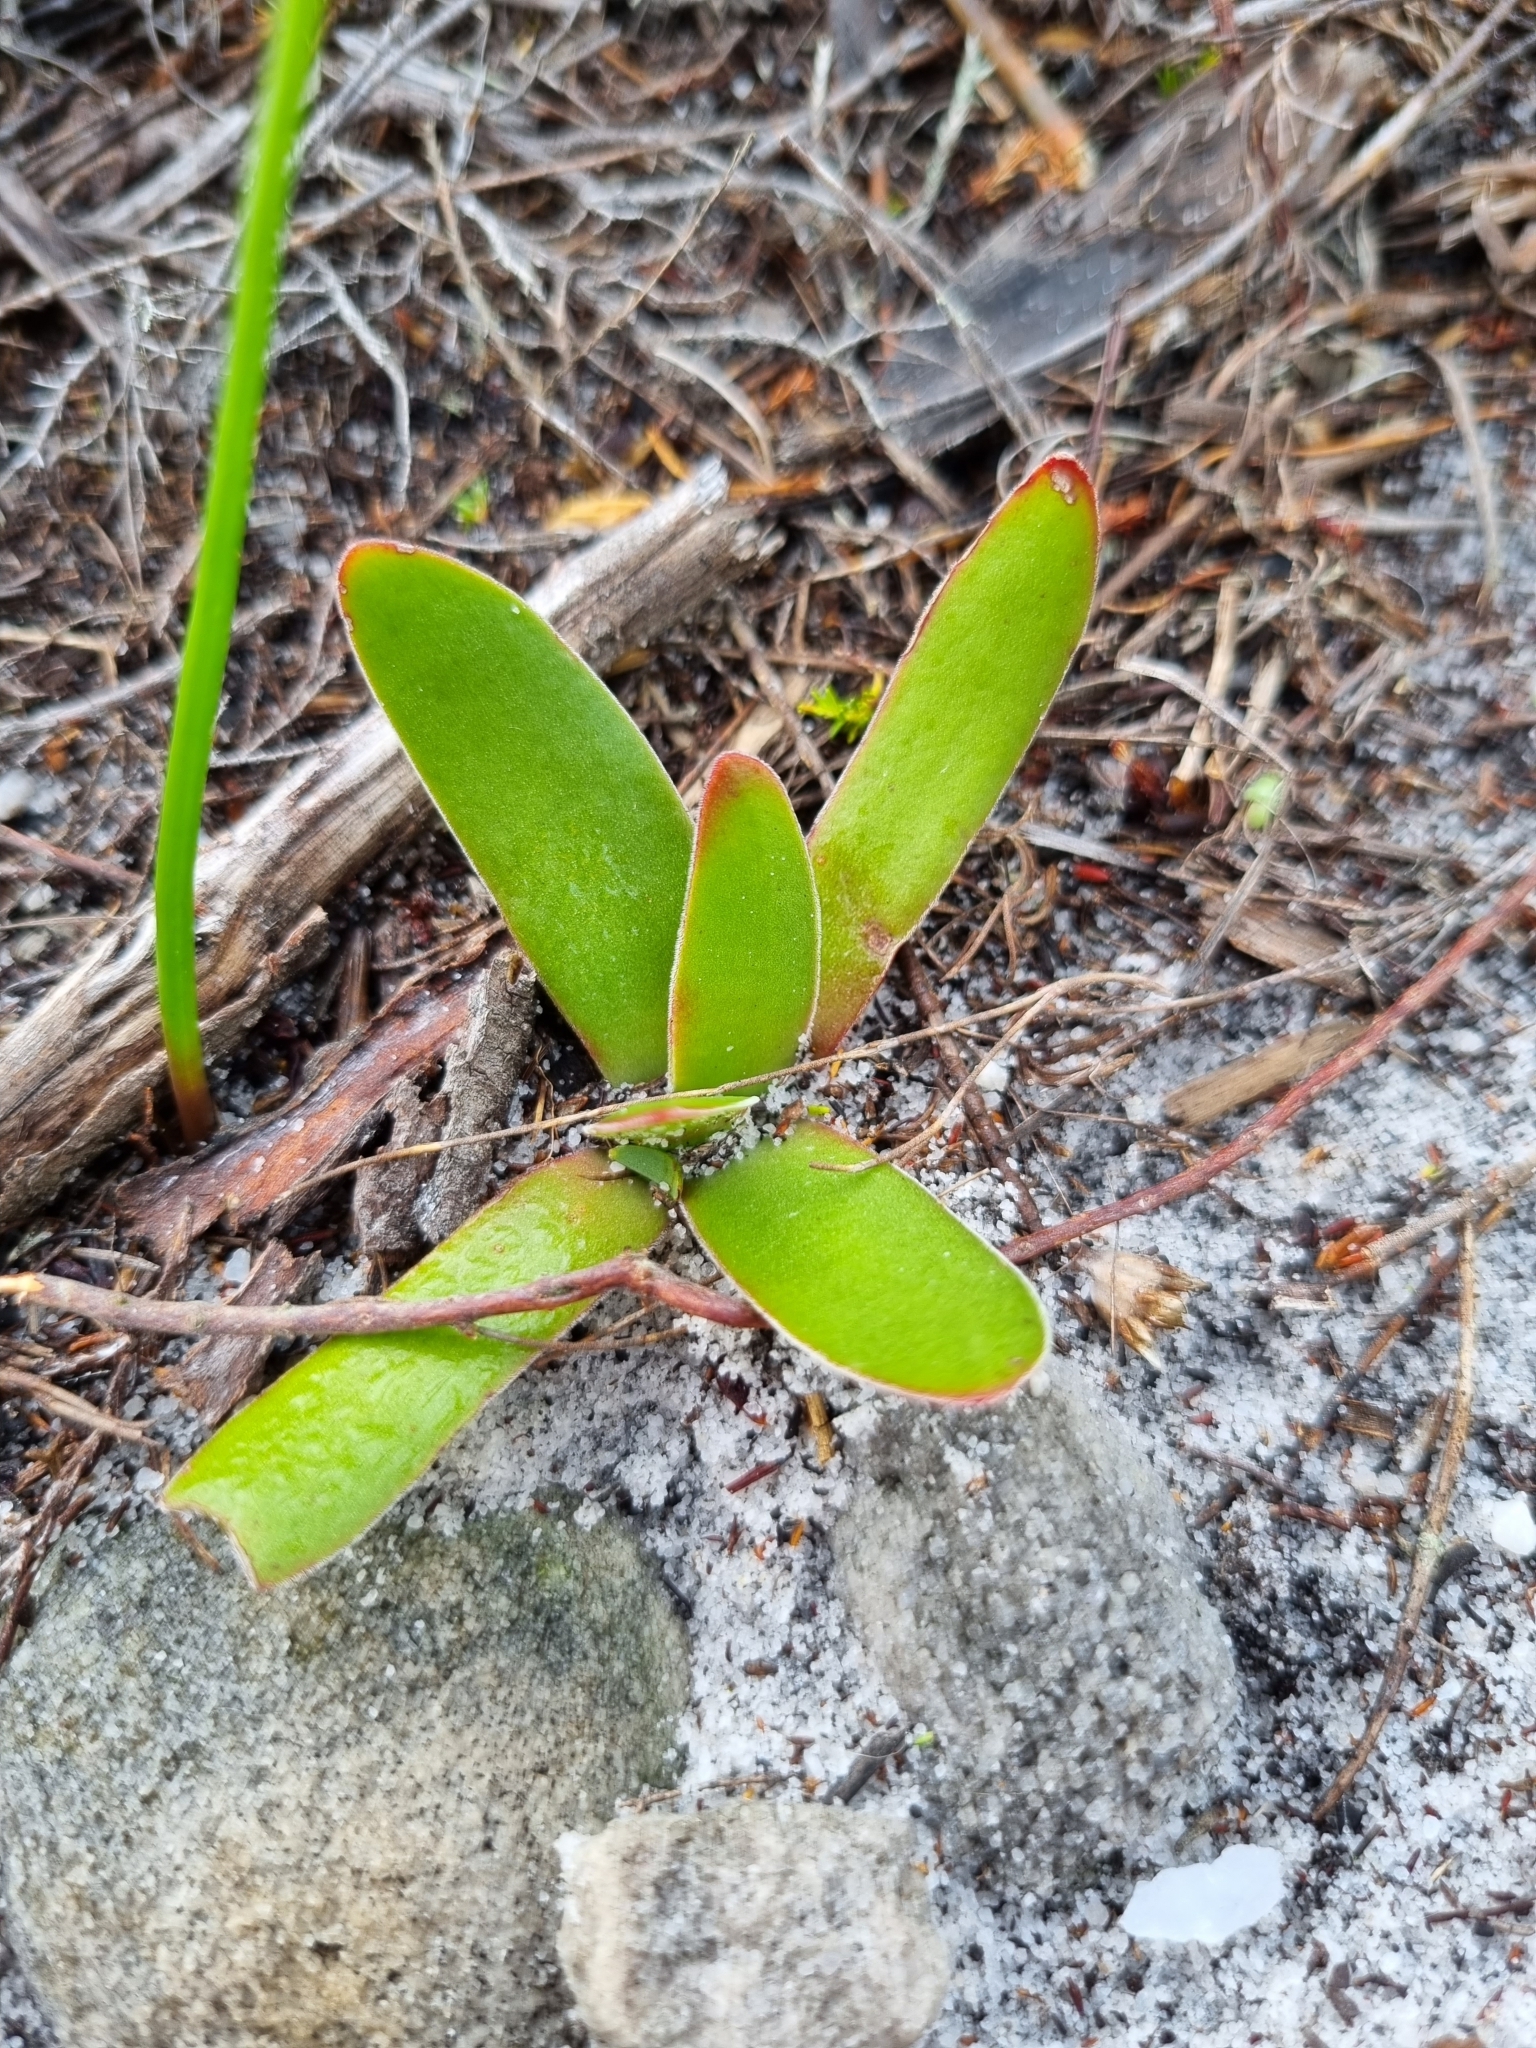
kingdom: Plantae
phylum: Tracheophyta
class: Magnoliopsida
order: Saxifragales
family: Crassulaceae
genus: Crassula
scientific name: Crassula nudicaulis
